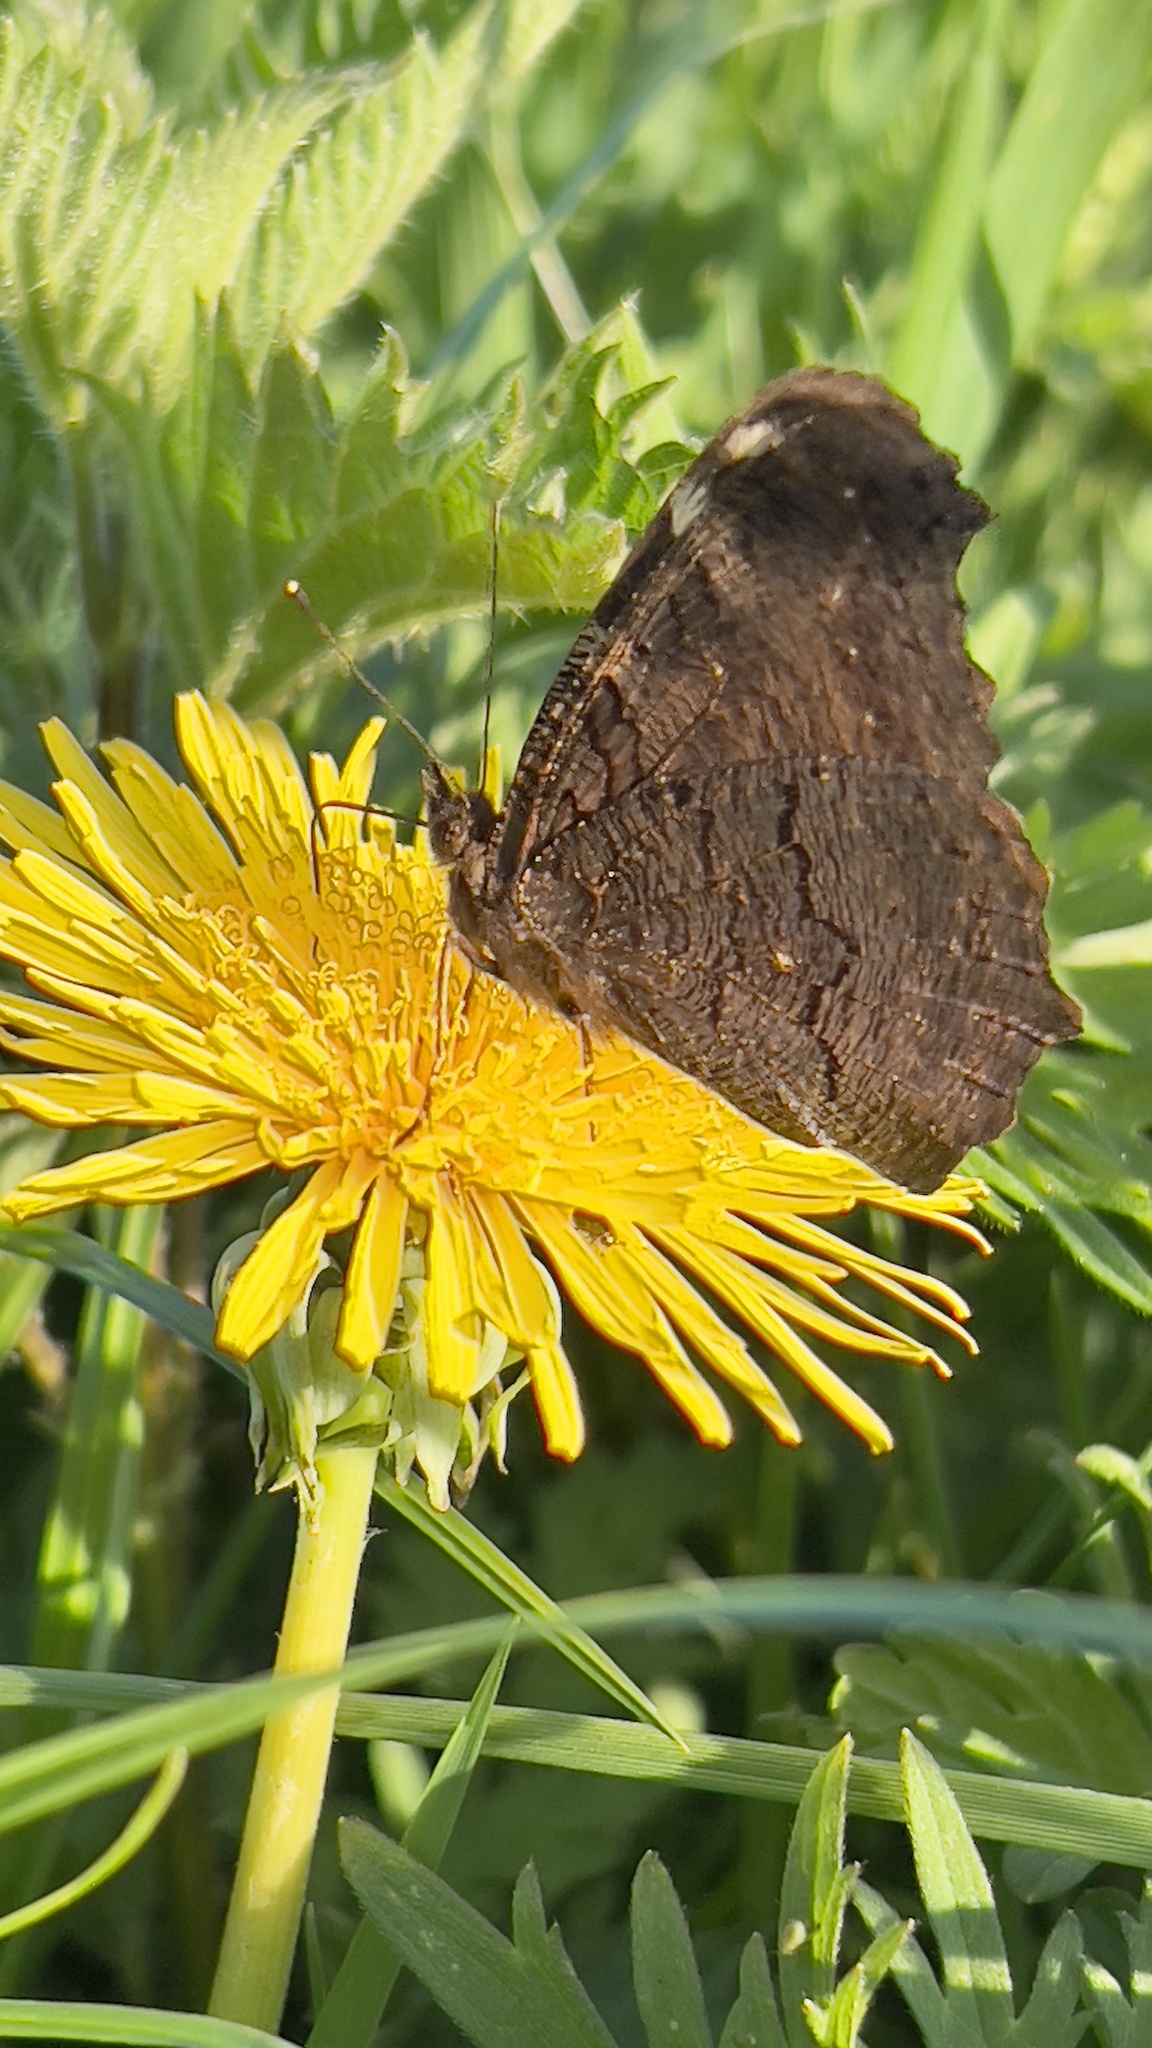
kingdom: Animalia
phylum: Arthropoda
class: Insecta
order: Lepidoptera
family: Nymphalidae
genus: Aglais
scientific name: Aglais io
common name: Peacock
